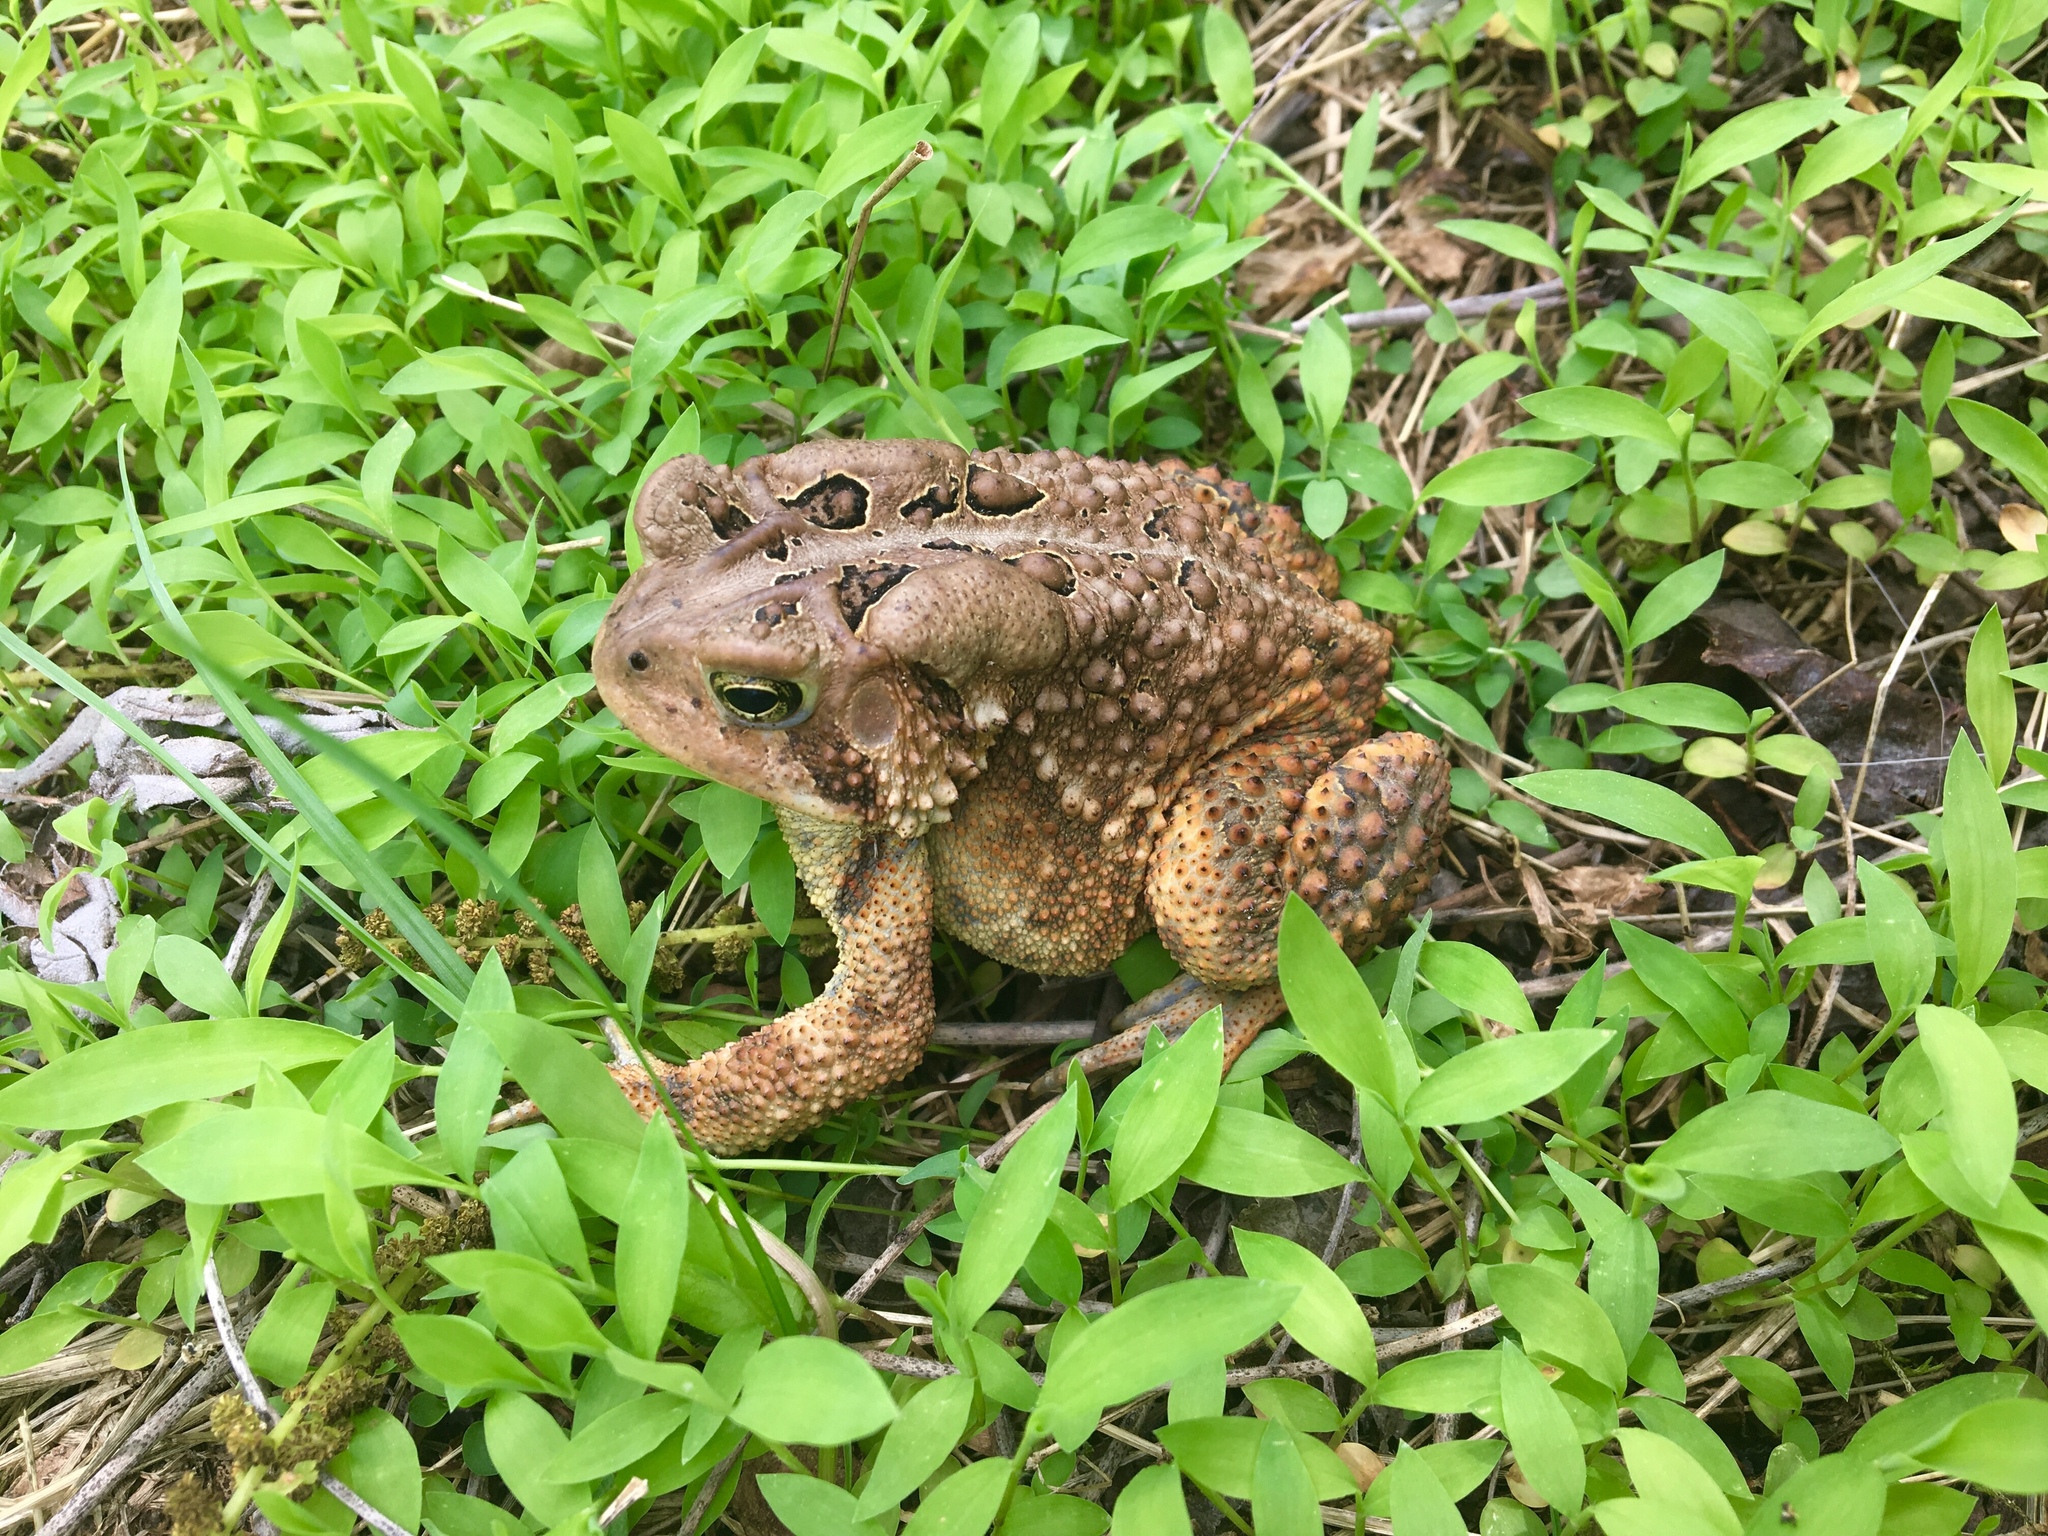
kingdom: Animalia
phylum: Chordata
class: Amphibia
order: Anura
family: Bufonidae
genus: Anaxyrus
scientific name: Anaxyrus americanus
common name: American toad
